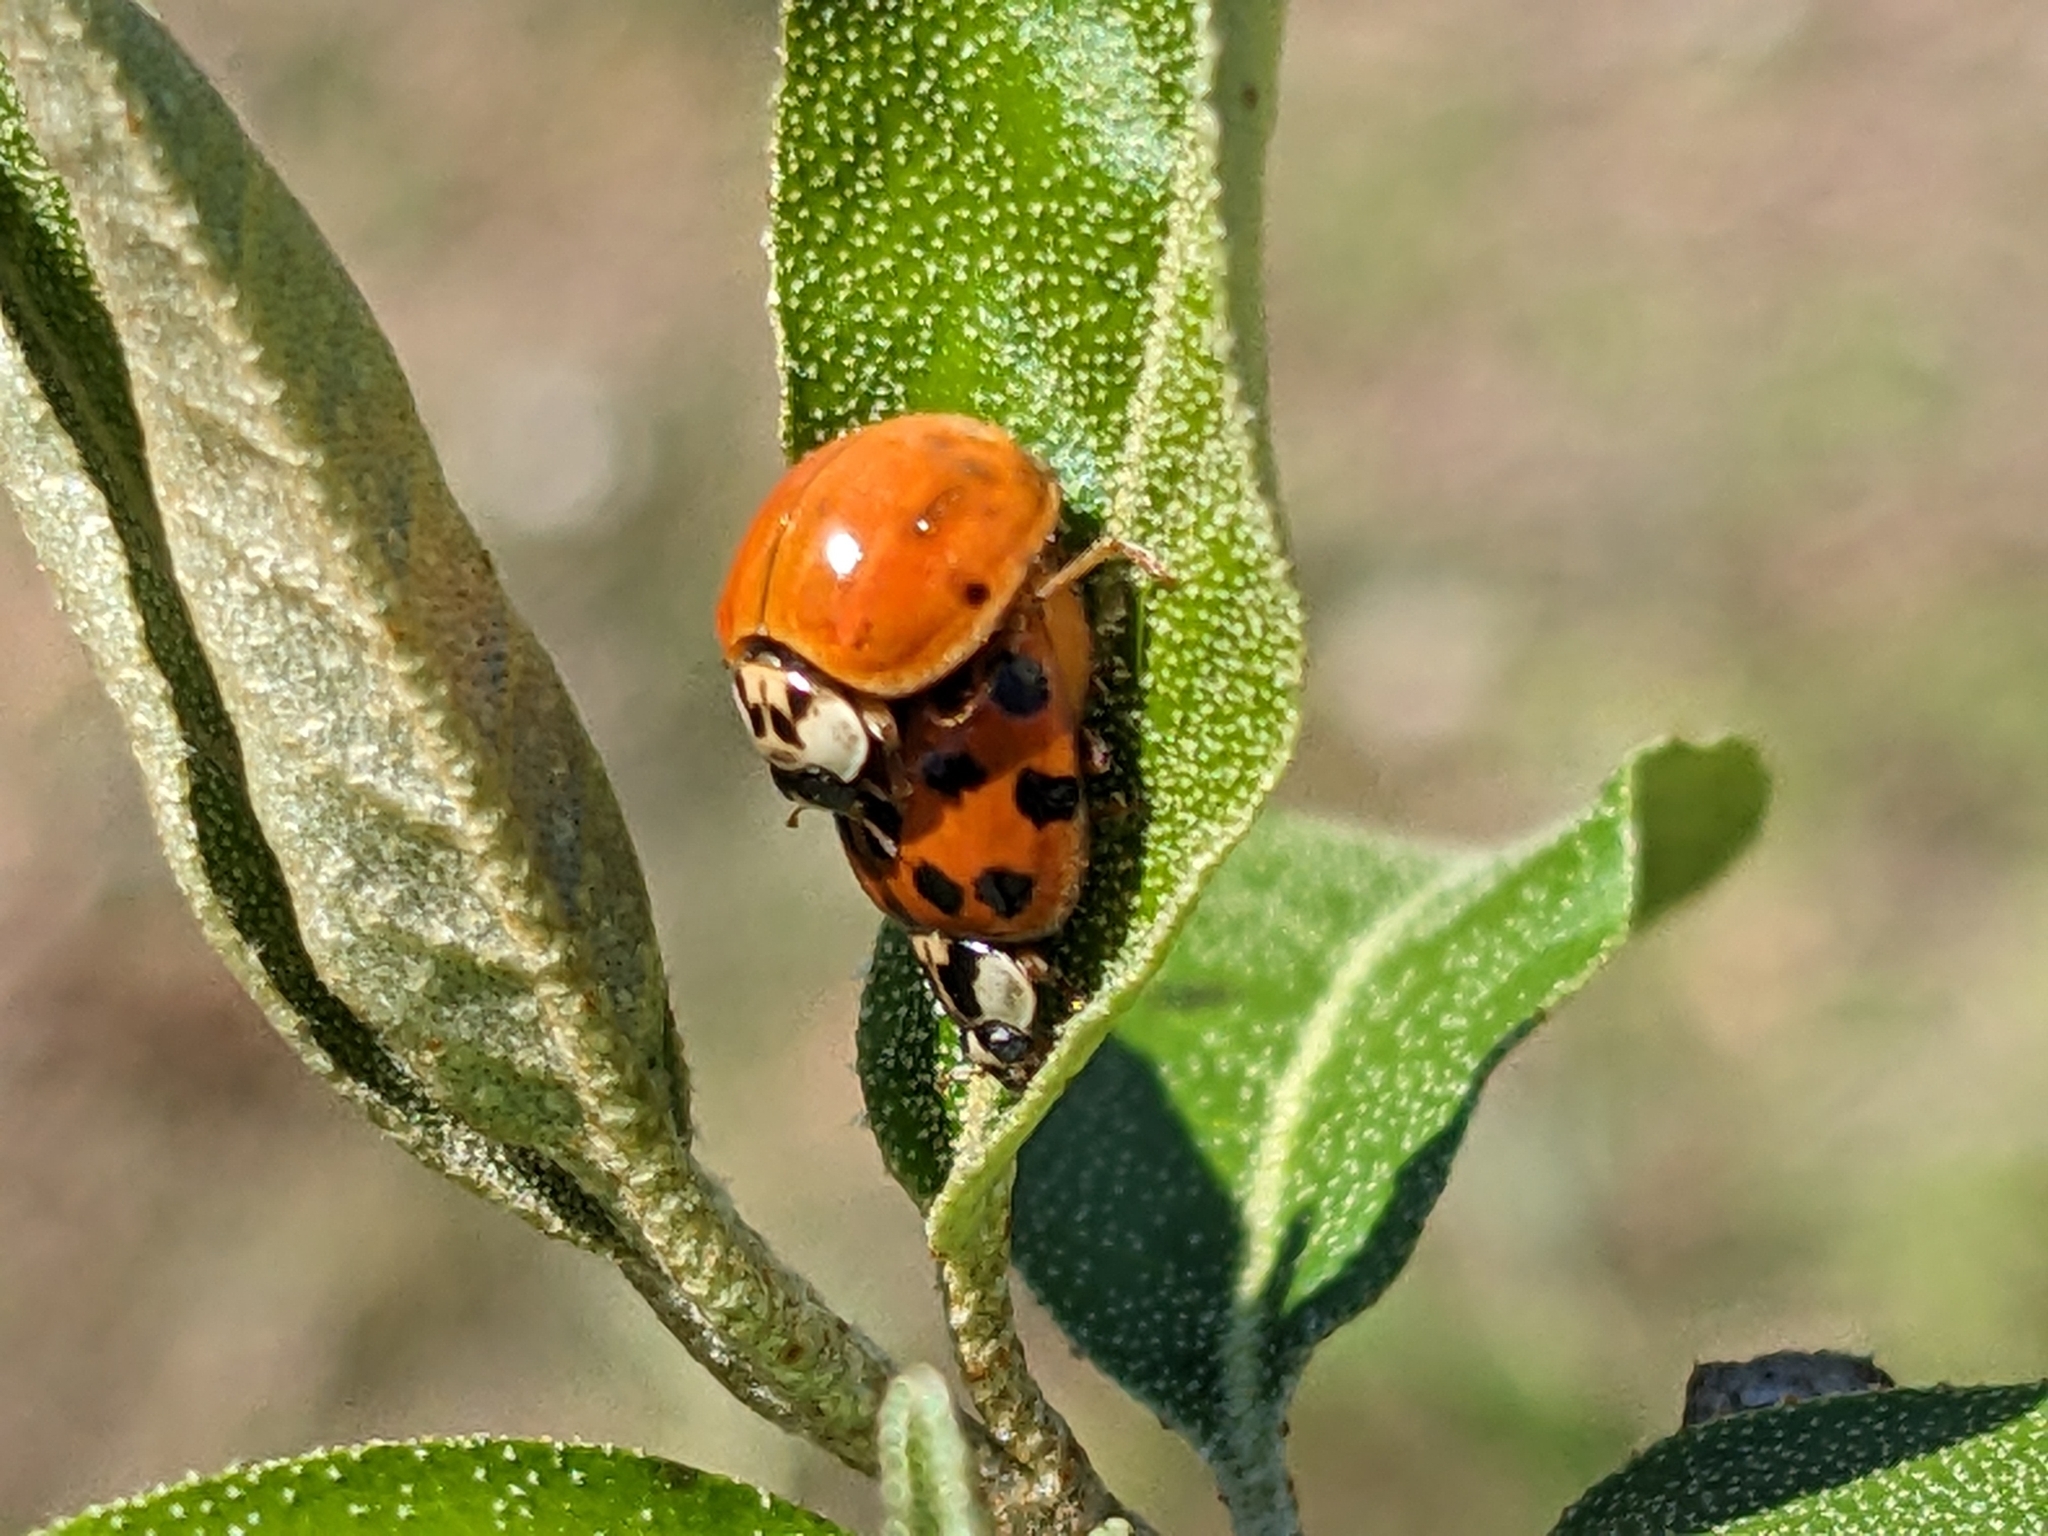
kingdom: Animalia
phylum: Arthropoda
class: Insecta
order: Coleoptera
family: Coccinellidae
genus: Harmonia
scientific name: Harmonia axyridis
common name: Harlequin ladybird
